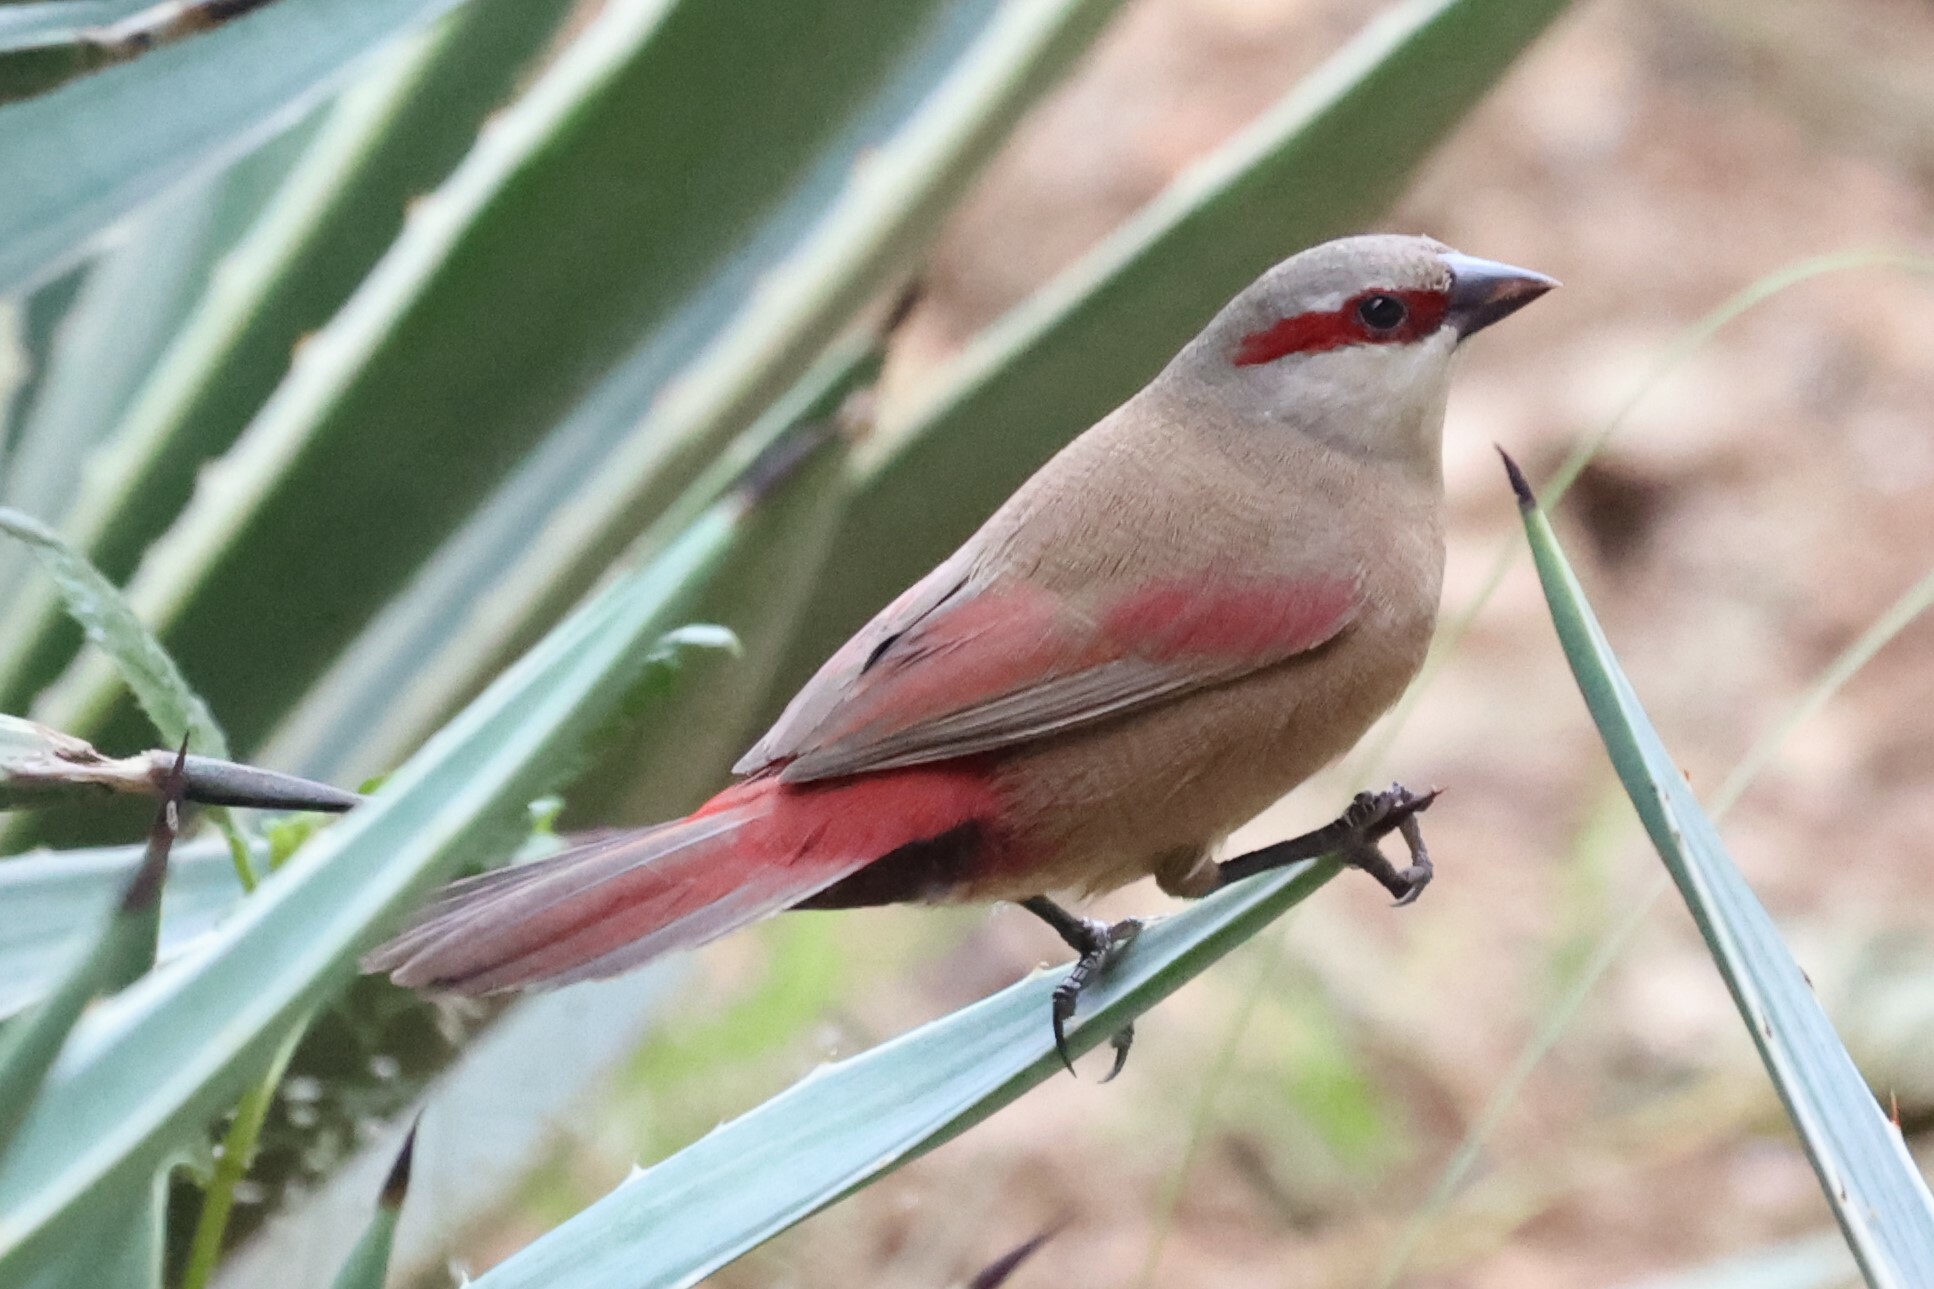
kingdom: Animalia
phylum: Chordata
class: Aves
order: Passeriformes
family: Estrildidae
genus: Estrilda
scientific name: Estrilda rhodopyga
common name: Crimson-rumped waxbill
